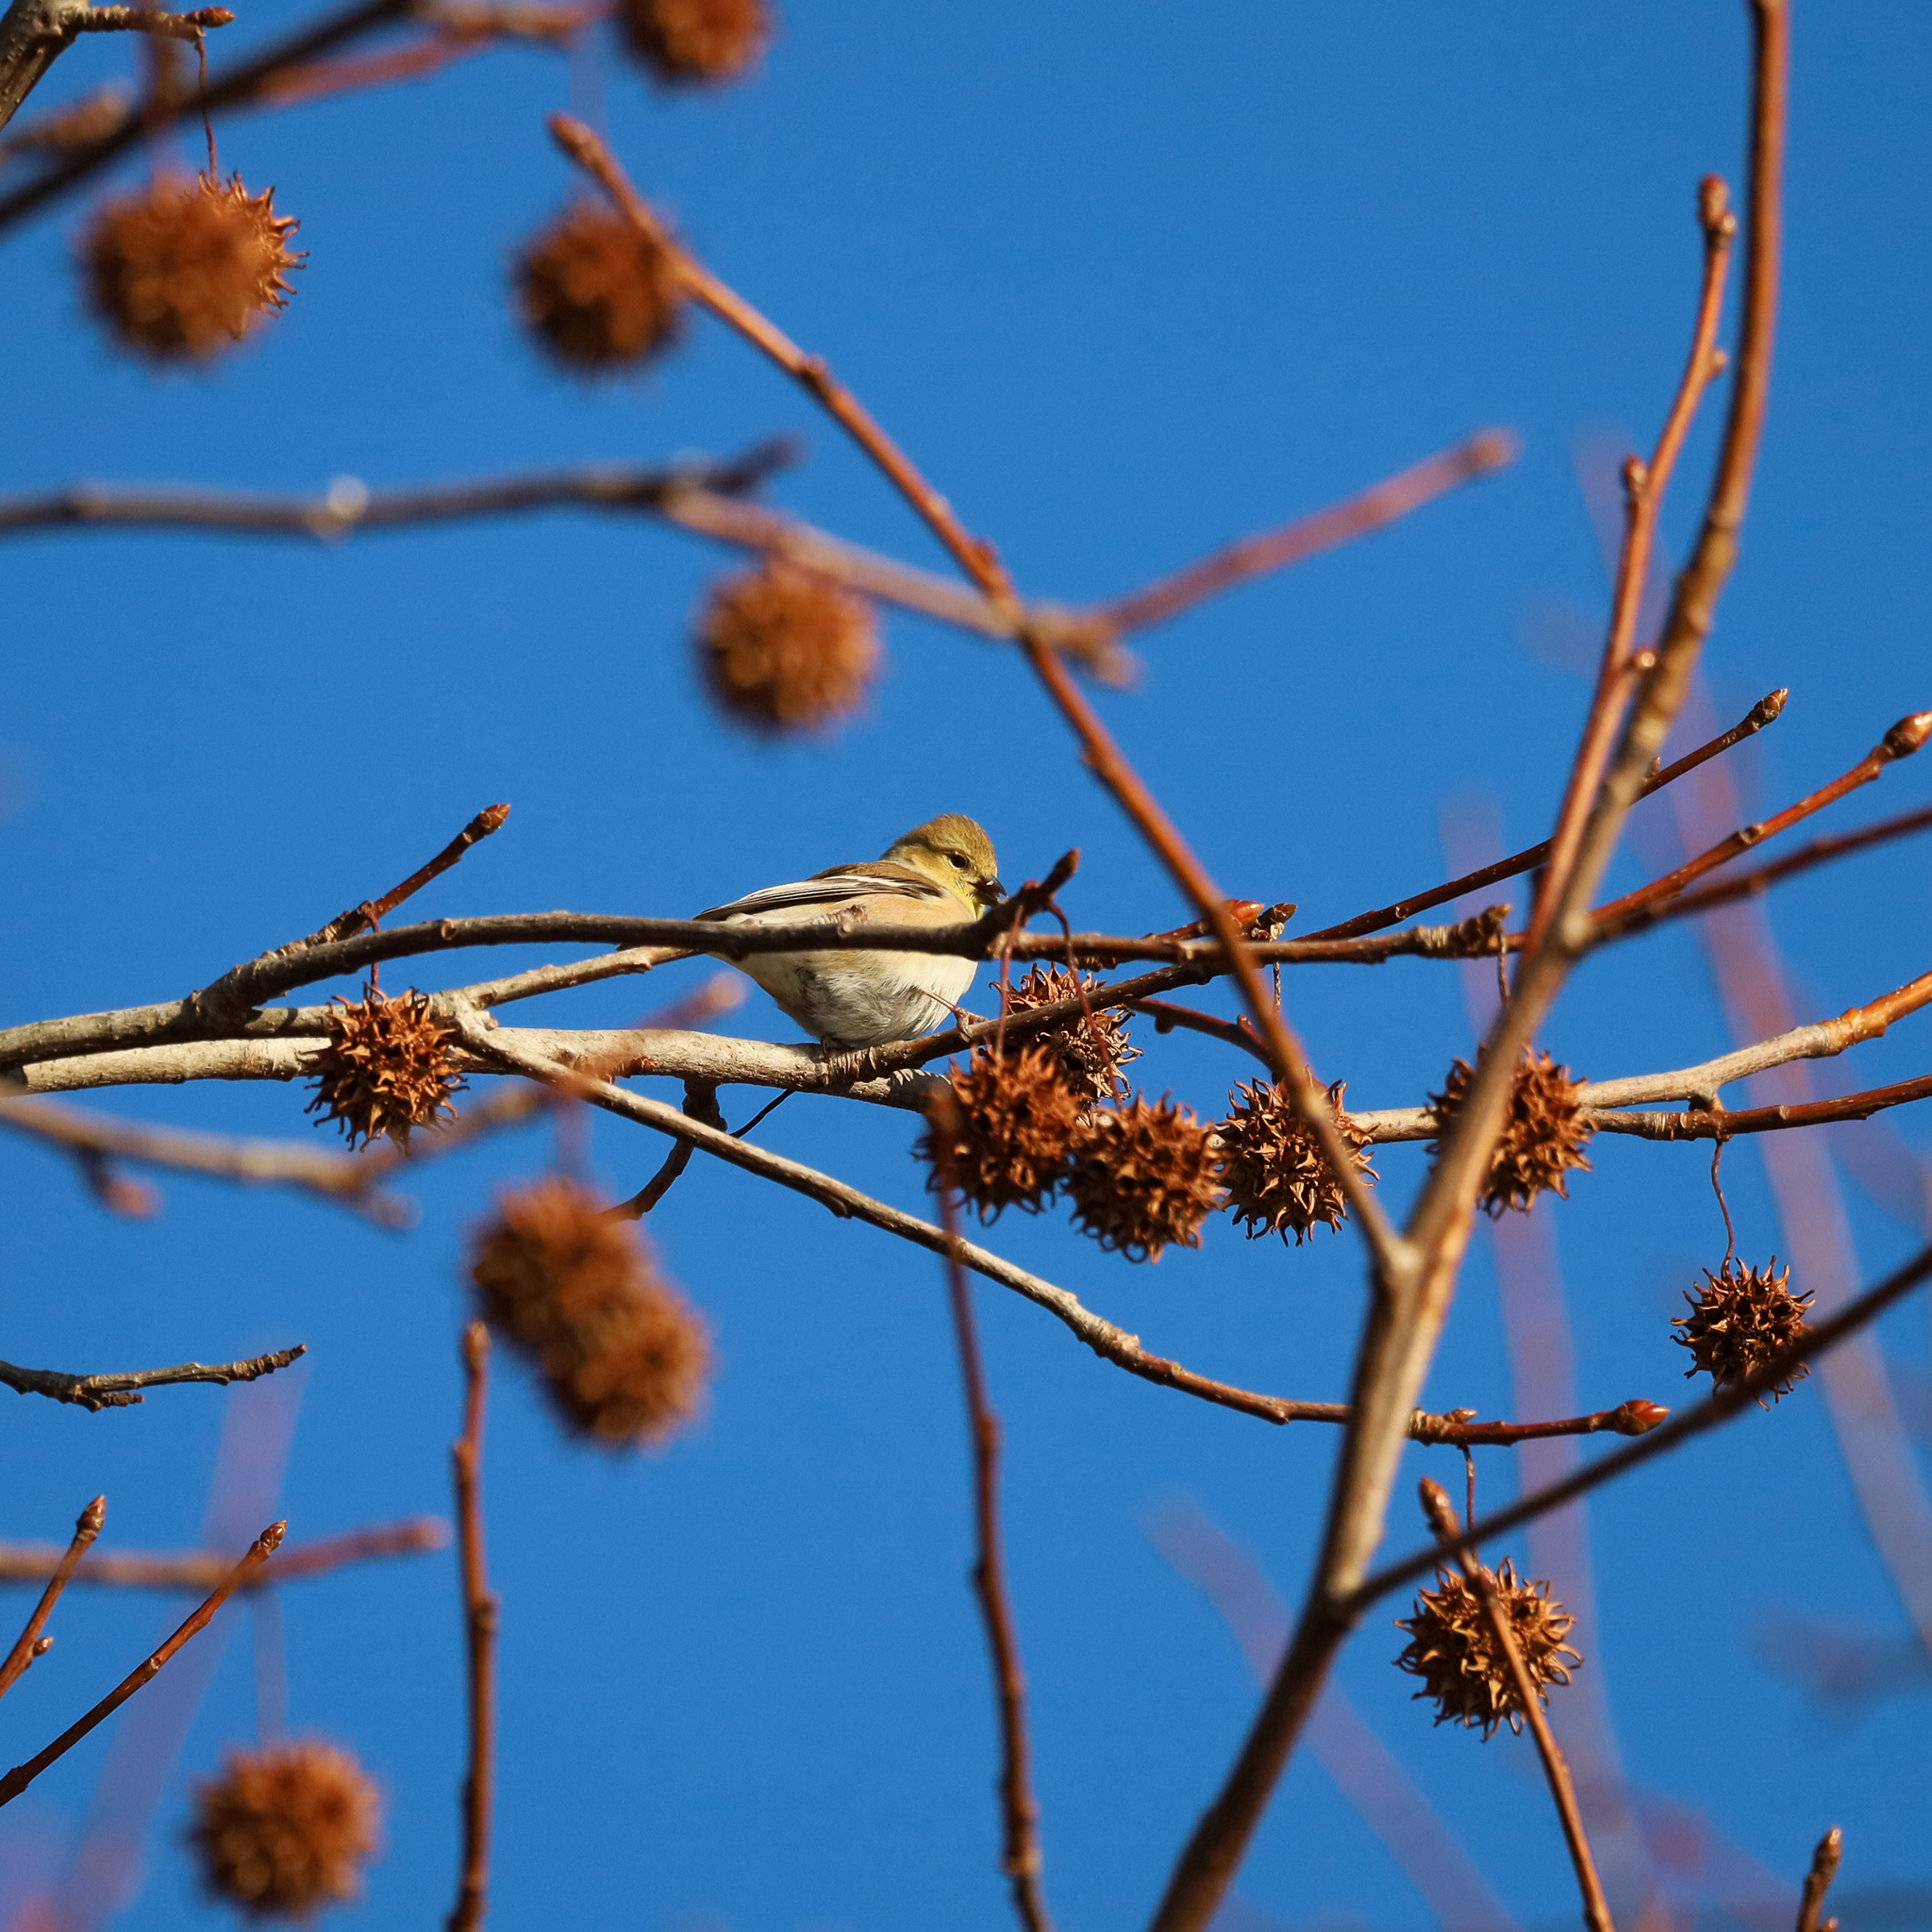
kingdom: Animalia
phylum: Chordata
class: Aves
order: Passeriformes
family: Fringillidae
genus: Spinus
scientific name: Spinus tristis
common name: American goldfinch
